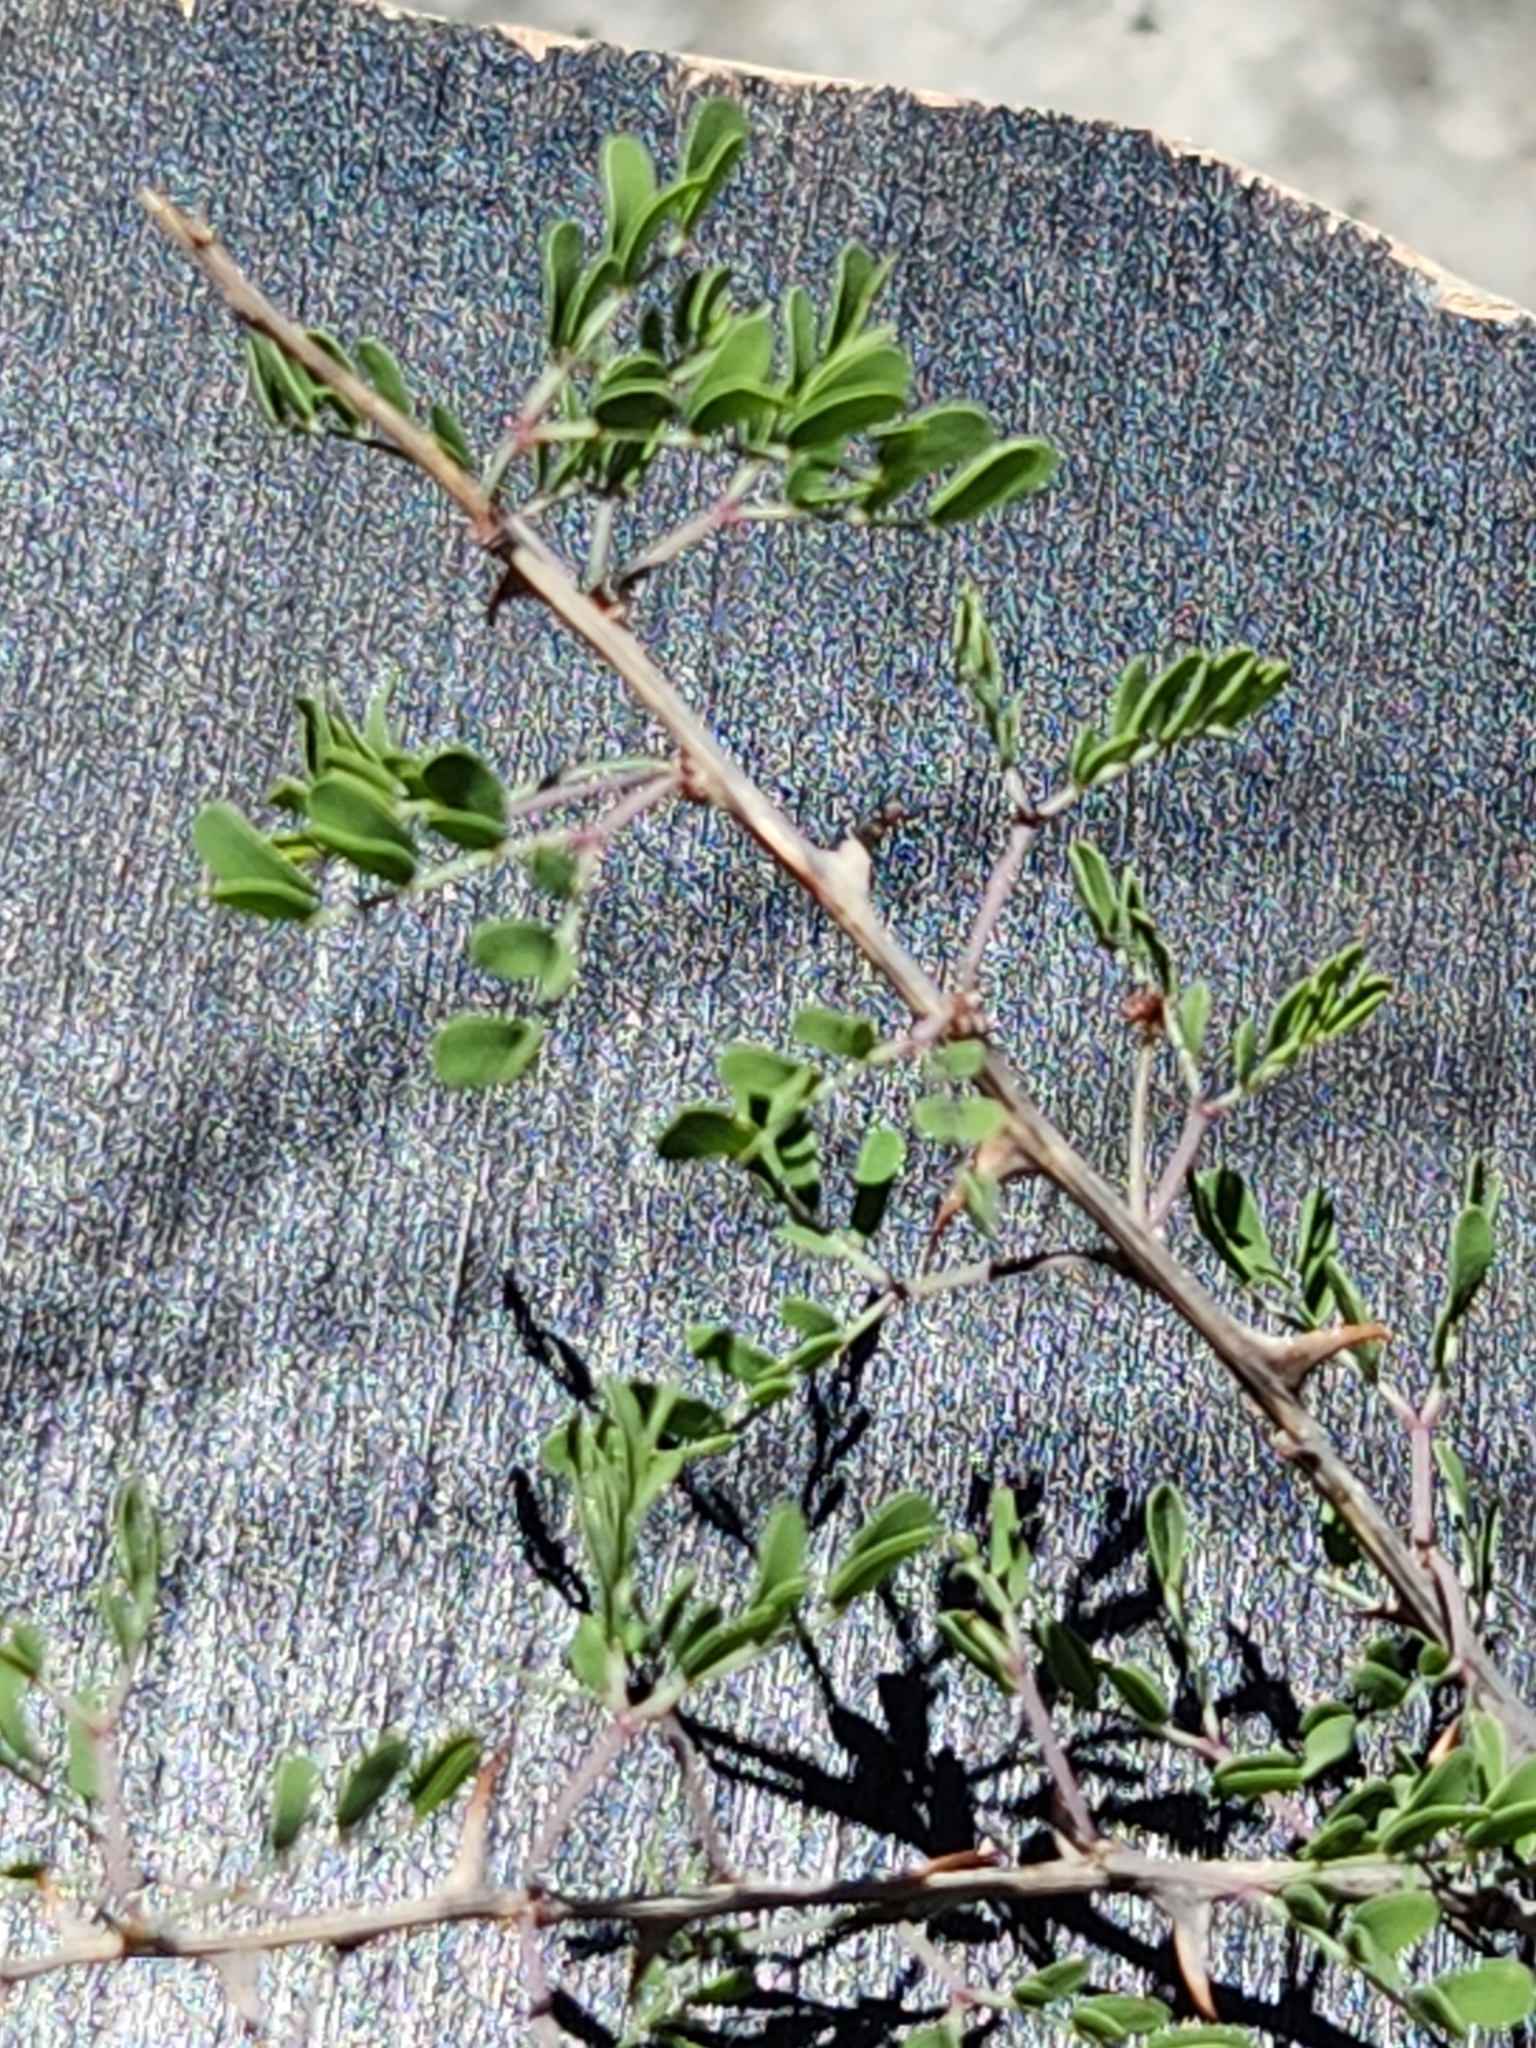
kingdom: Plantae
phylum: Tracheophyta
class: Magnoliopsida
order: Fabales
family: Fabaceae
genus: Mimosa
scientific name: Mimosa borealis
